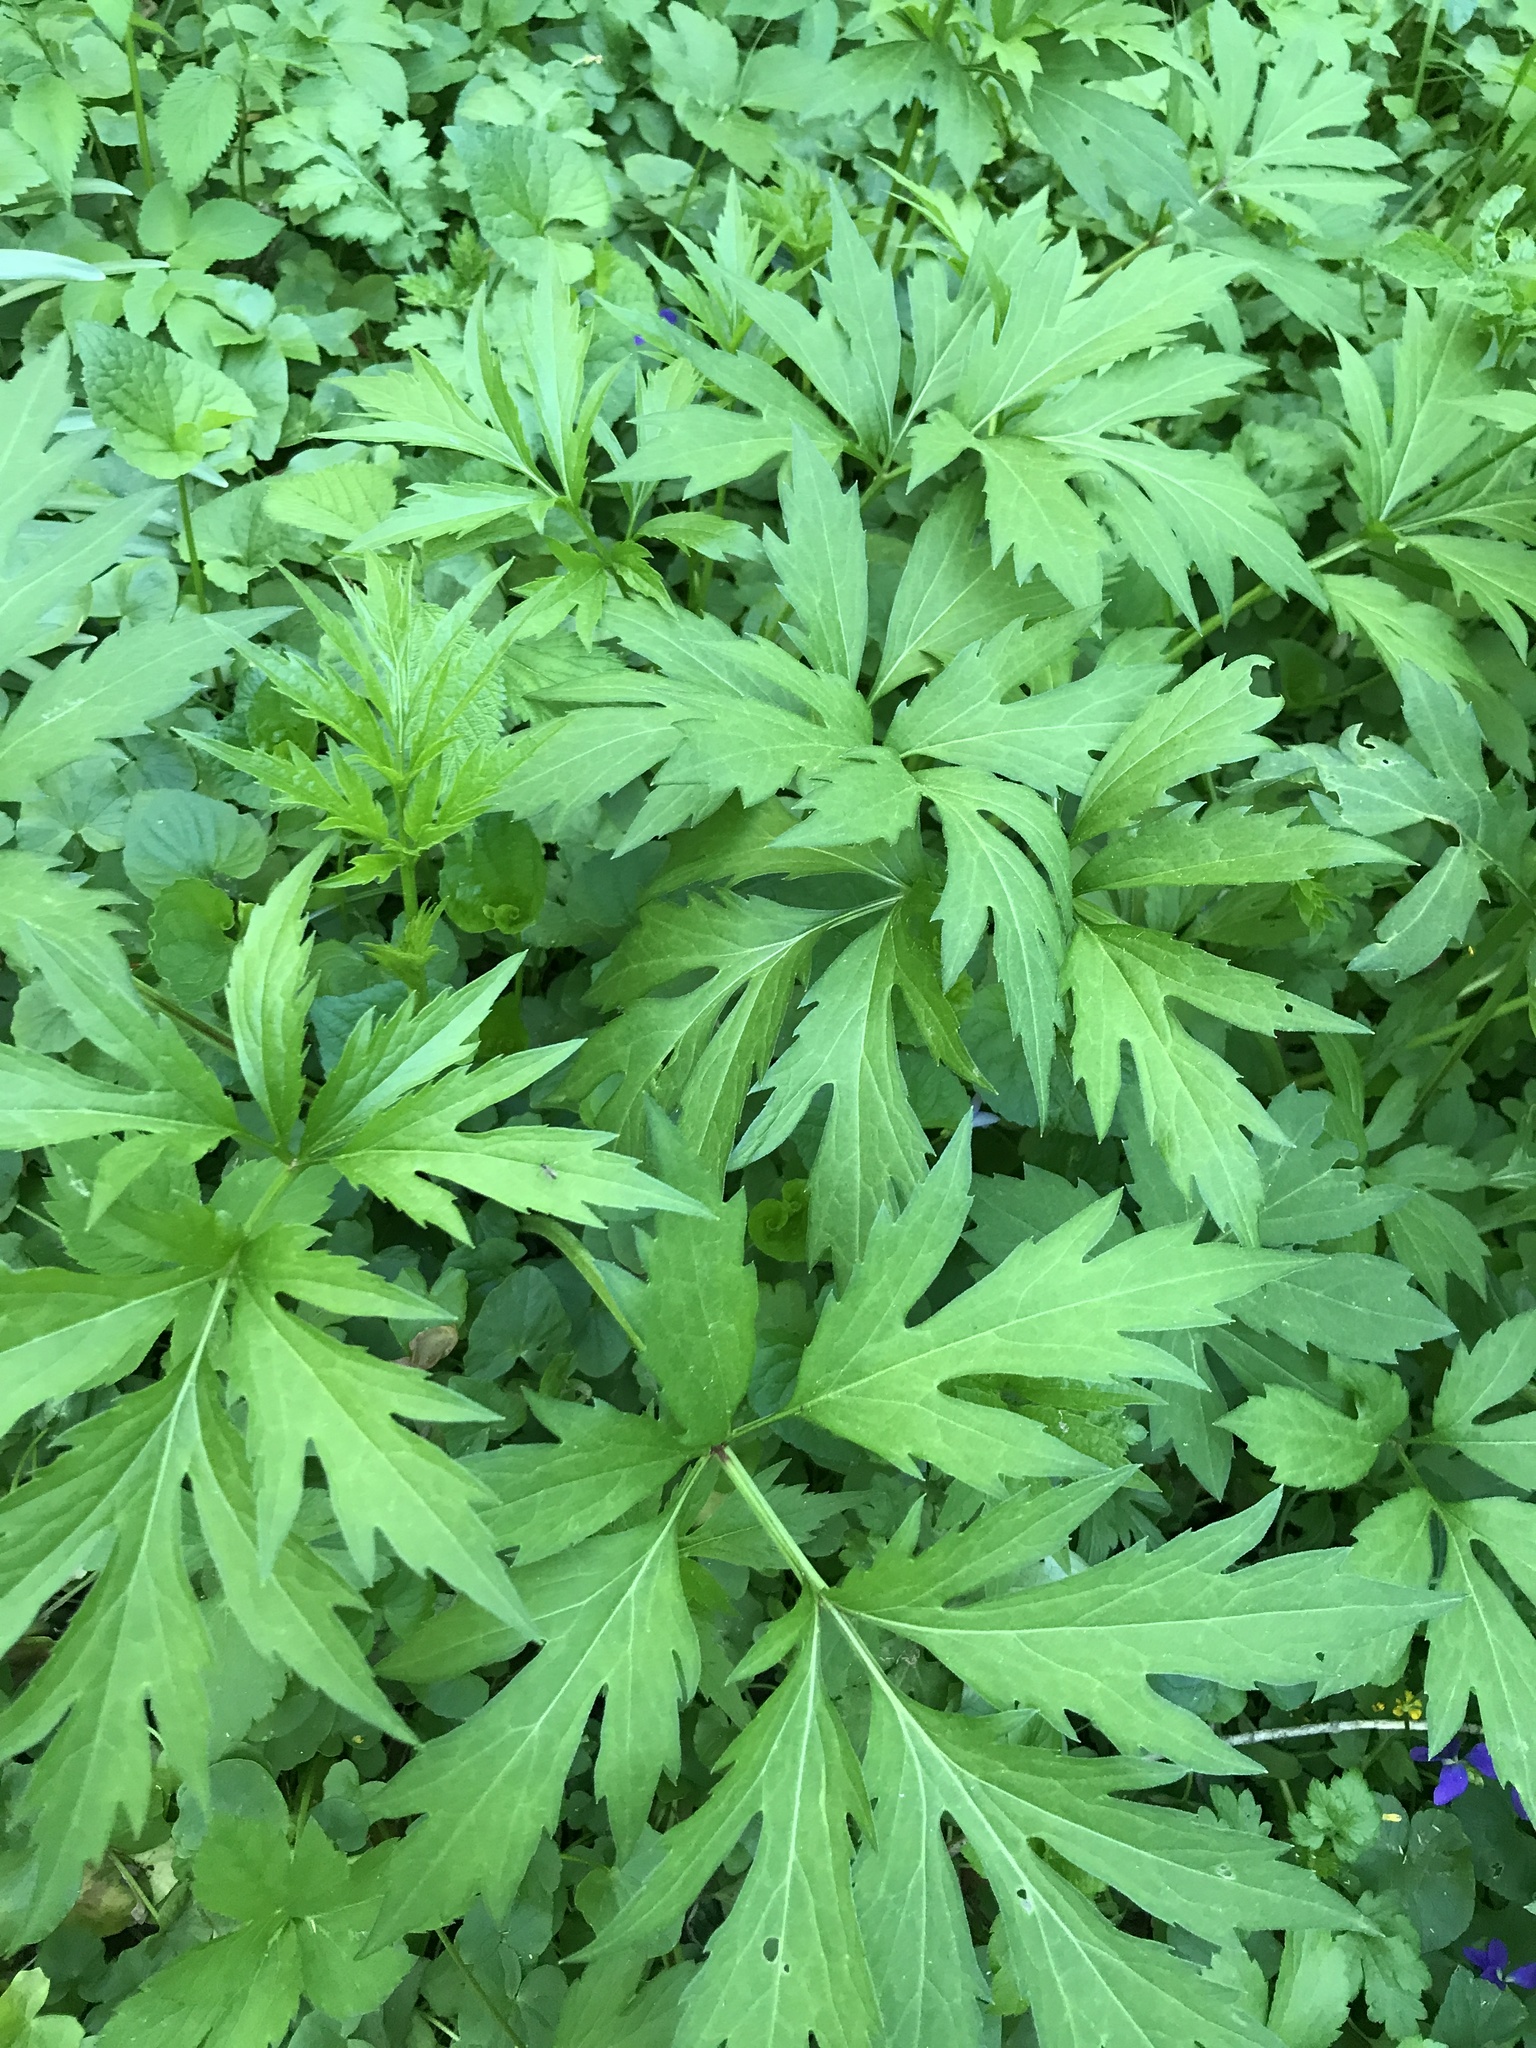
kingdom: Plantae
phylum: Tracheophyta
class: Magnoliopsida
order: Asterales
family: Asteraceae
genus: Rudbeckia
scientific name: Rudbeckia laciniata
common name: Coneflower
